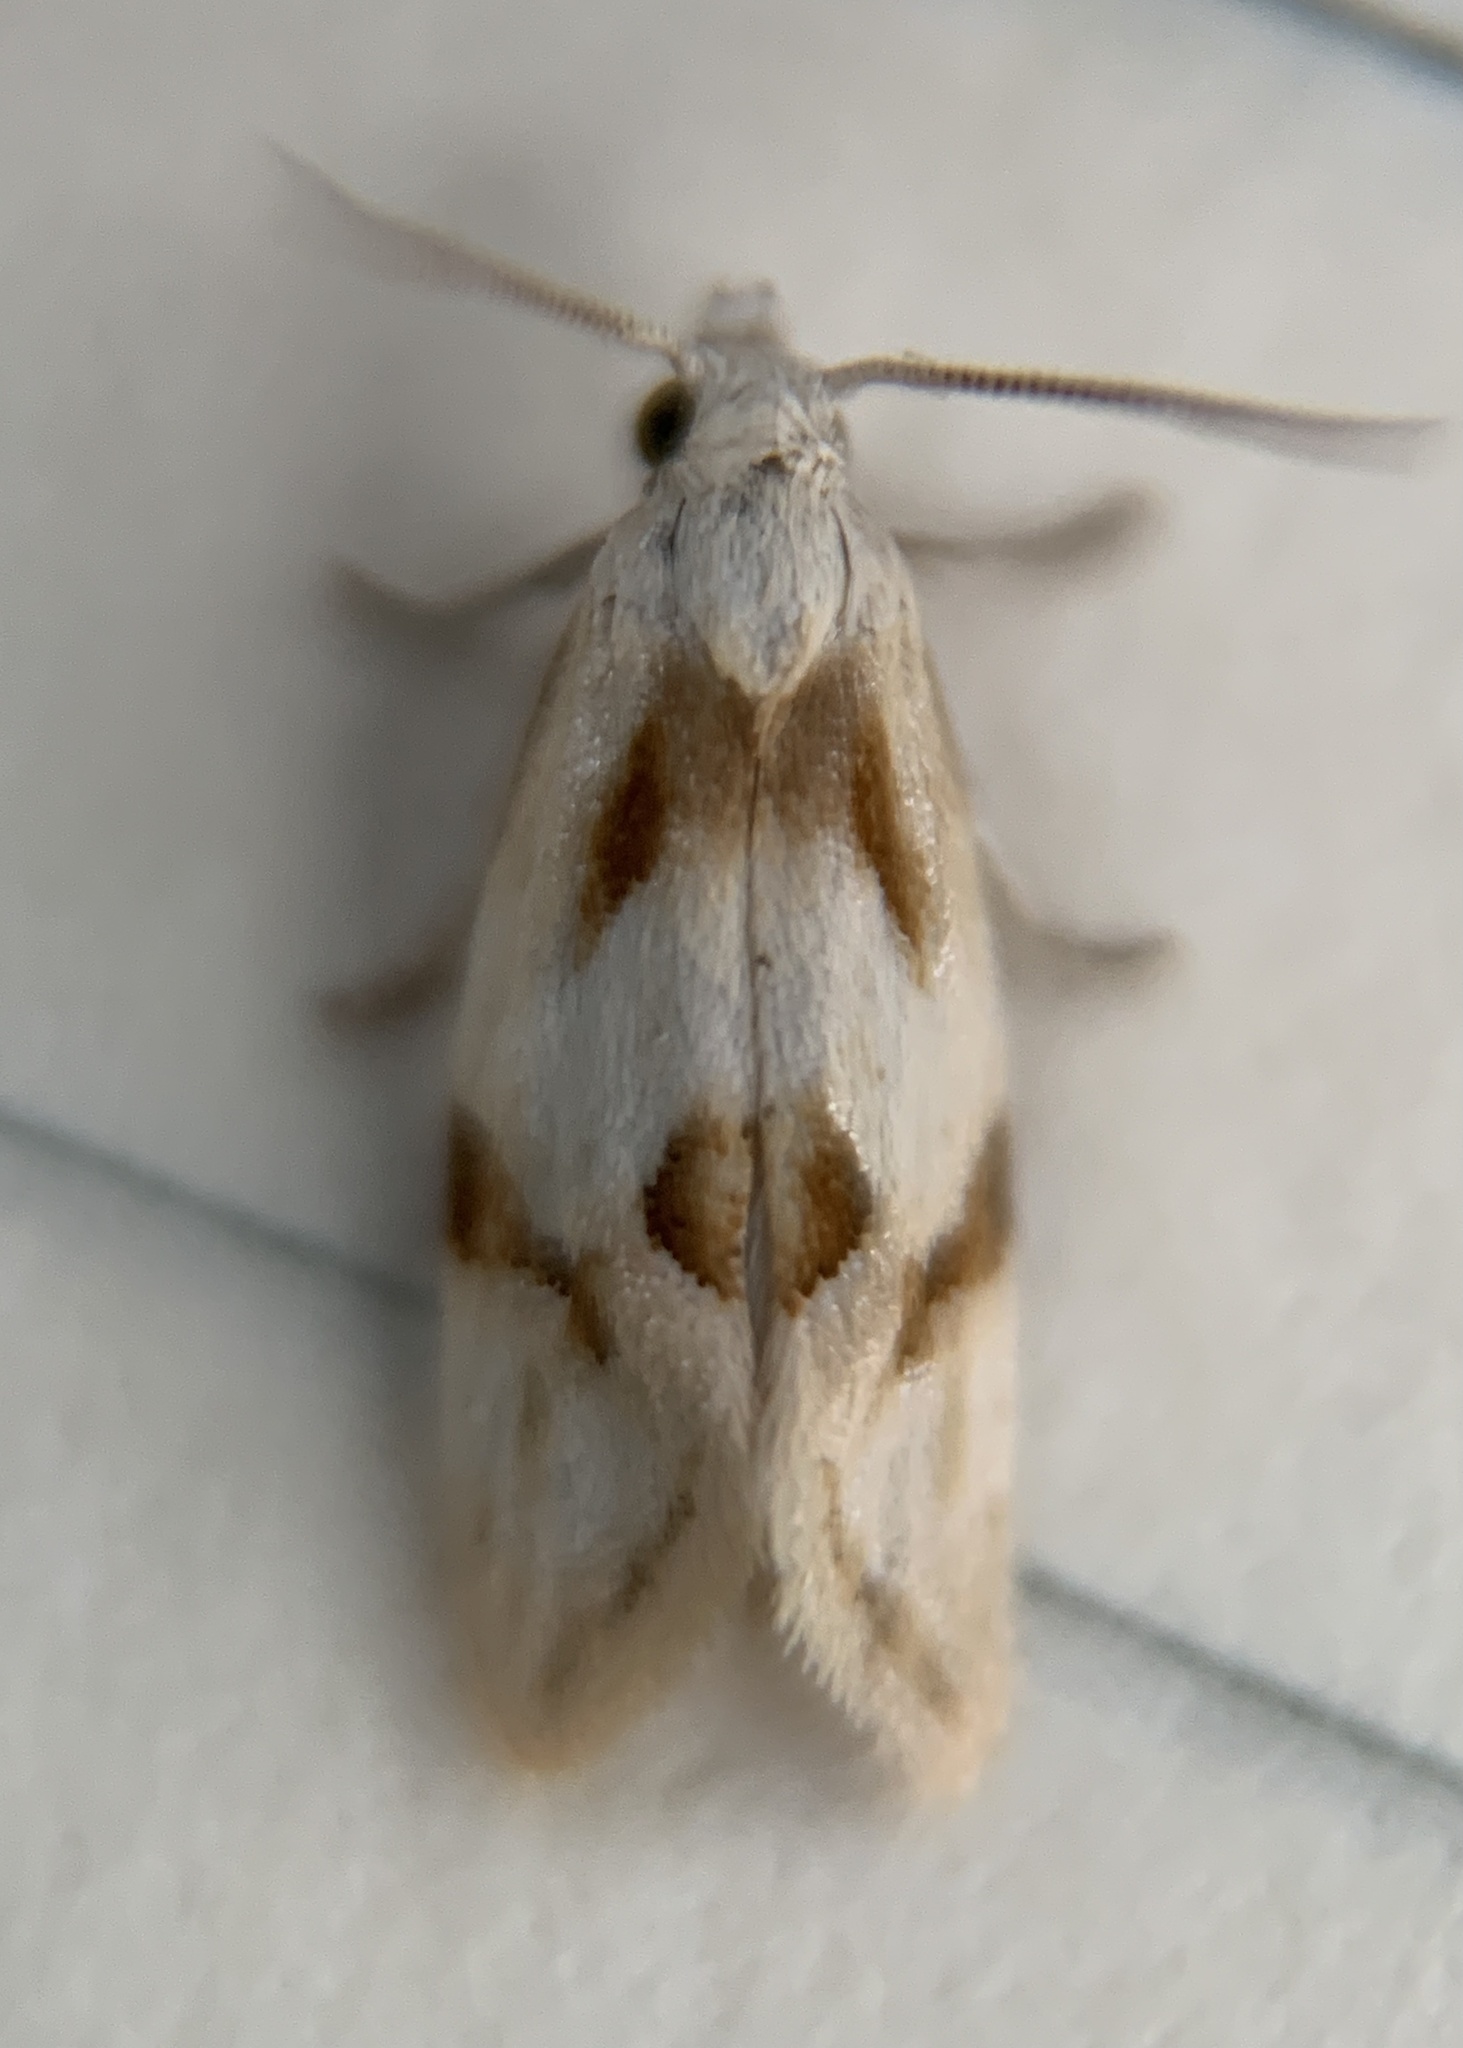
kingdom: Animalia
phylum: Arthropoda
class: Insecta
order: Lepidoptera
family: Tortricidae
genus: Aethes
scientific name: Aethes seriatana
